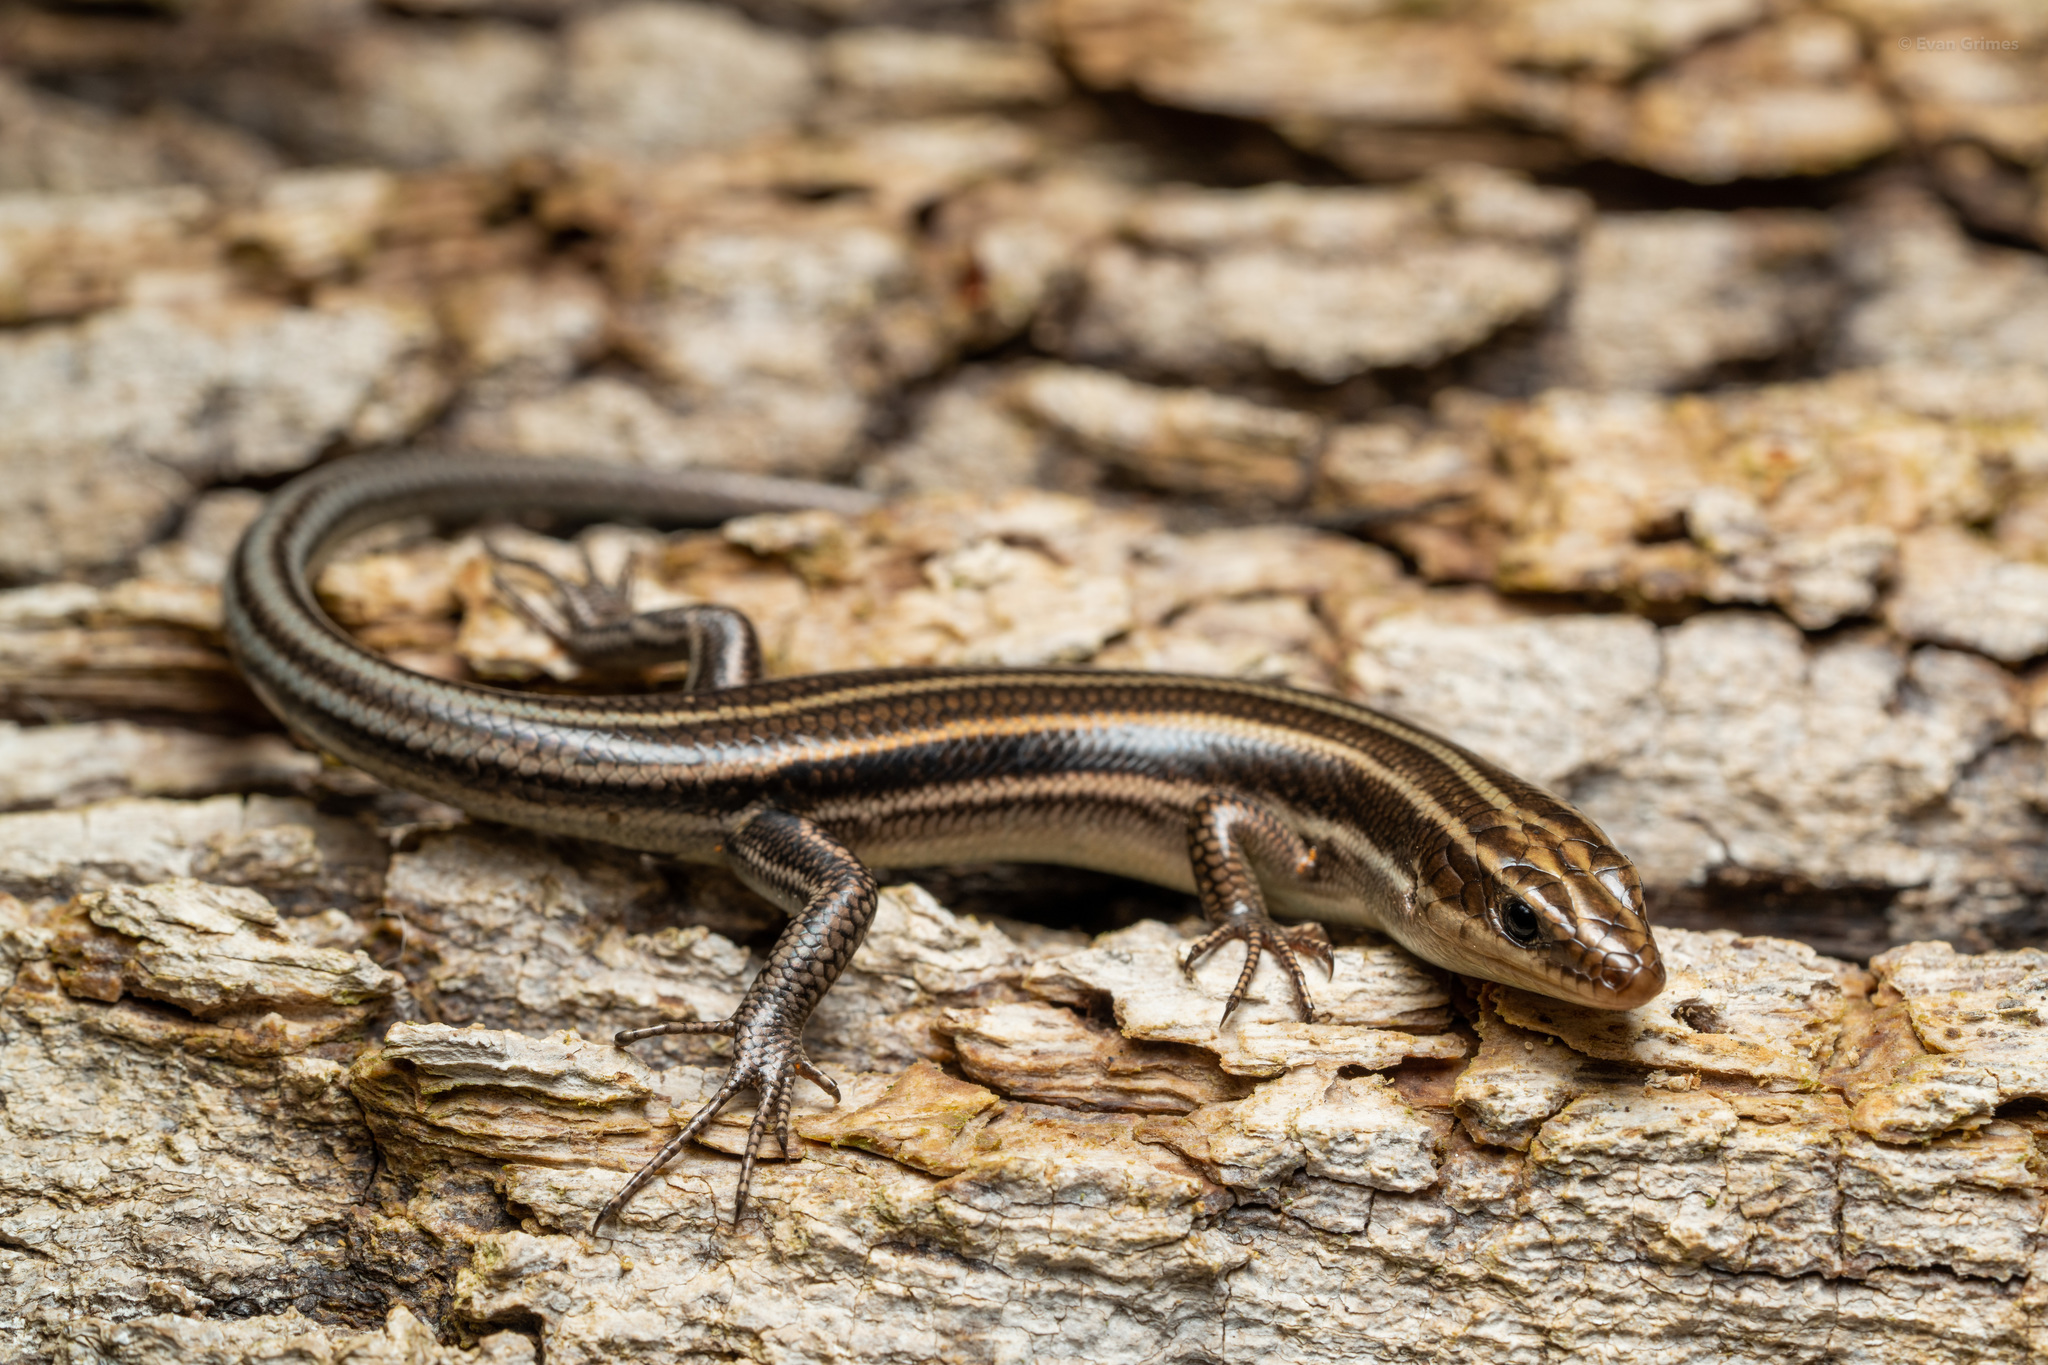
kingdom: Animalia
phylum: Chordata
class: Squamata
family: Scincidae
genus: Plestiodon
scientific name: Plestiodon fasciatus
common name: Five-lined skink
